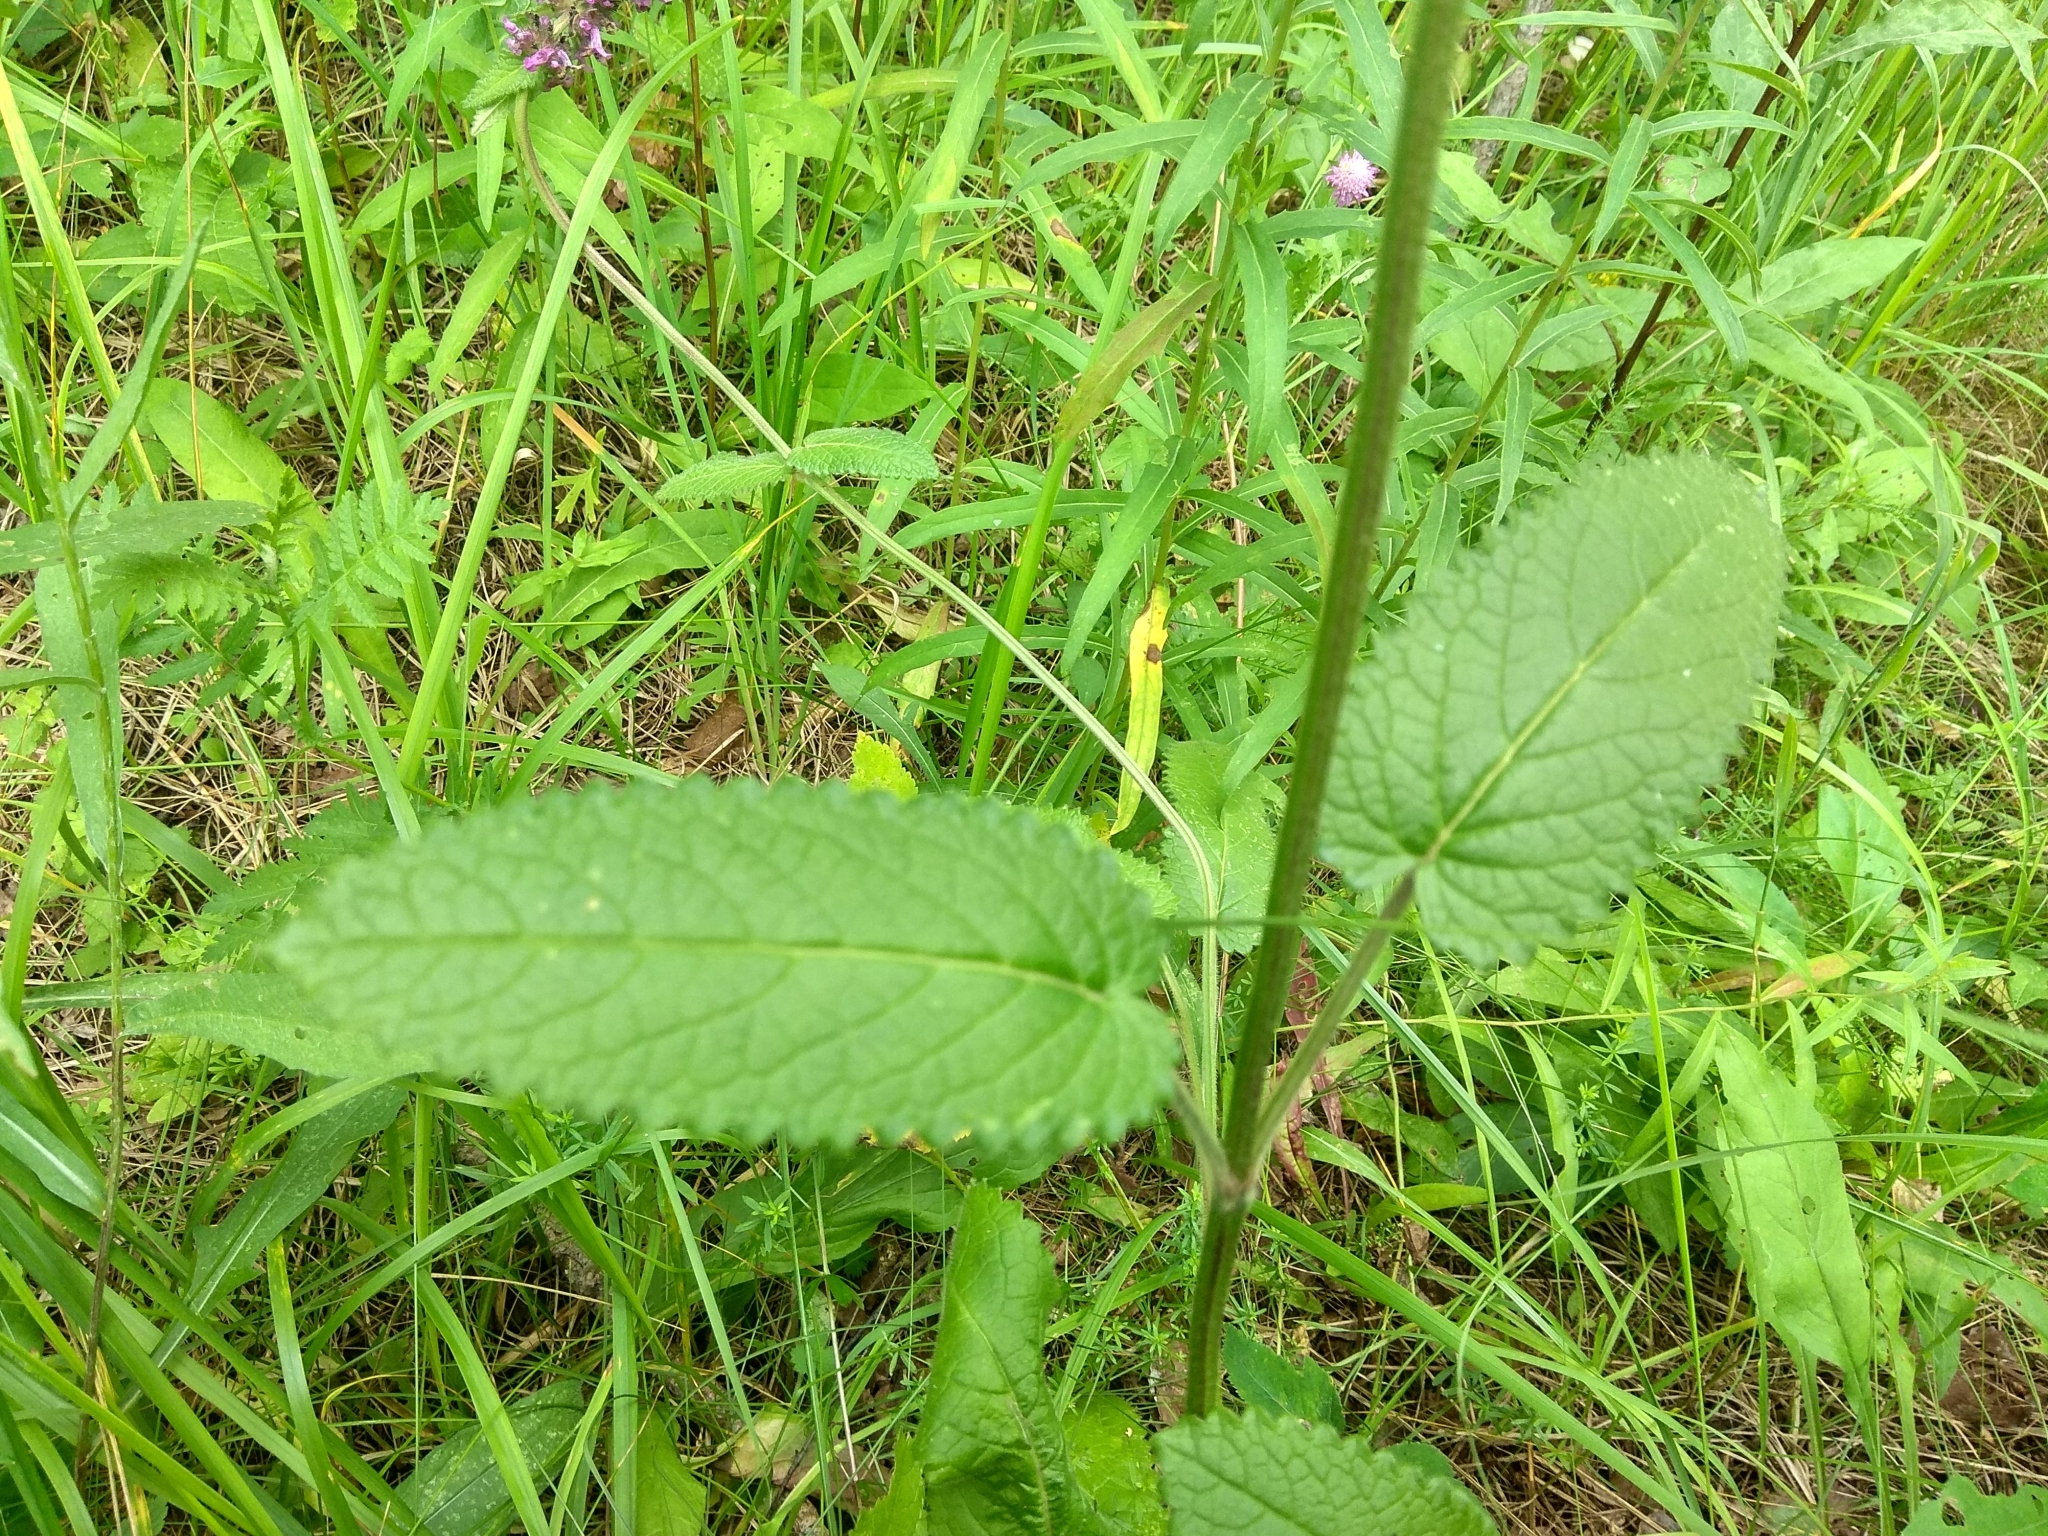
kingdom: Plantae
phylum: Tracheophyta
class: Magnoliopsida
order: Lamiales
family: Lamiaceae
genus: Betonica
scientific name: Betonica officinalis
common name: Bishop's-wort
